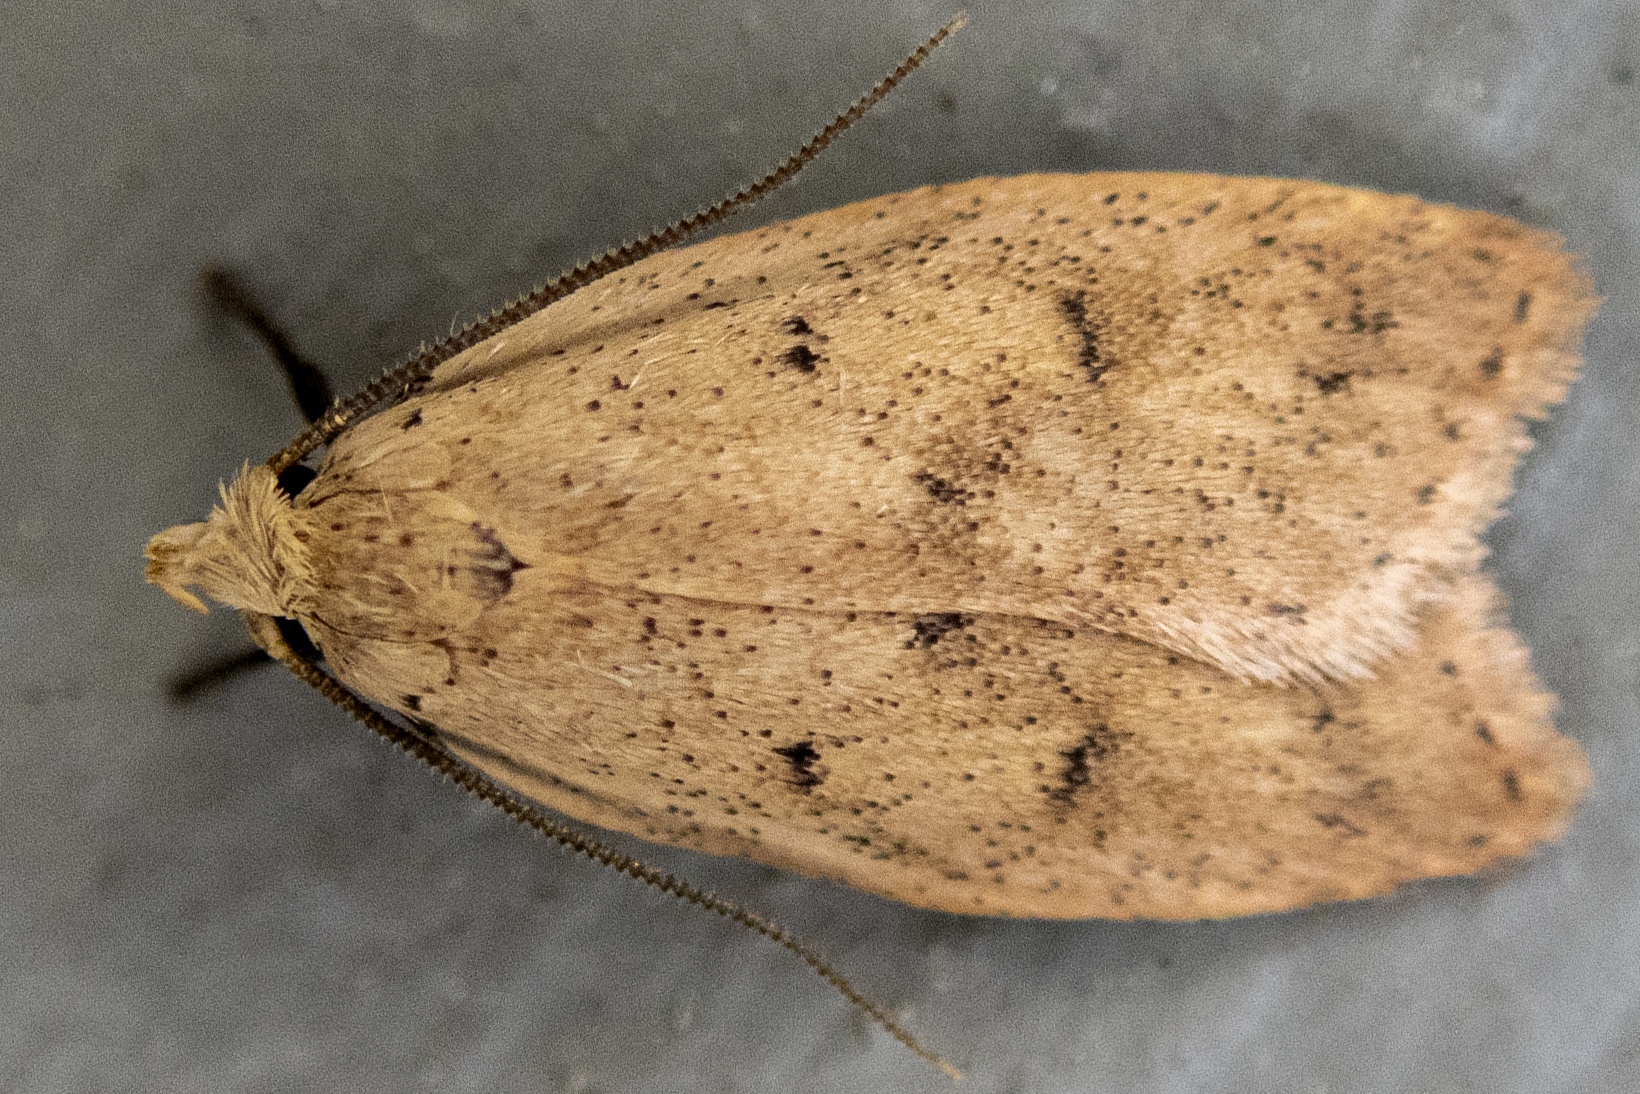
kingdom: Animalia
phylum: Arthropoda
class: Insecta
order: Lepidoptera
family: Peleopodidae
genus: Machimia
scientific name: Machimia tentoriferella
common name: Gold-striped leaftier moth
